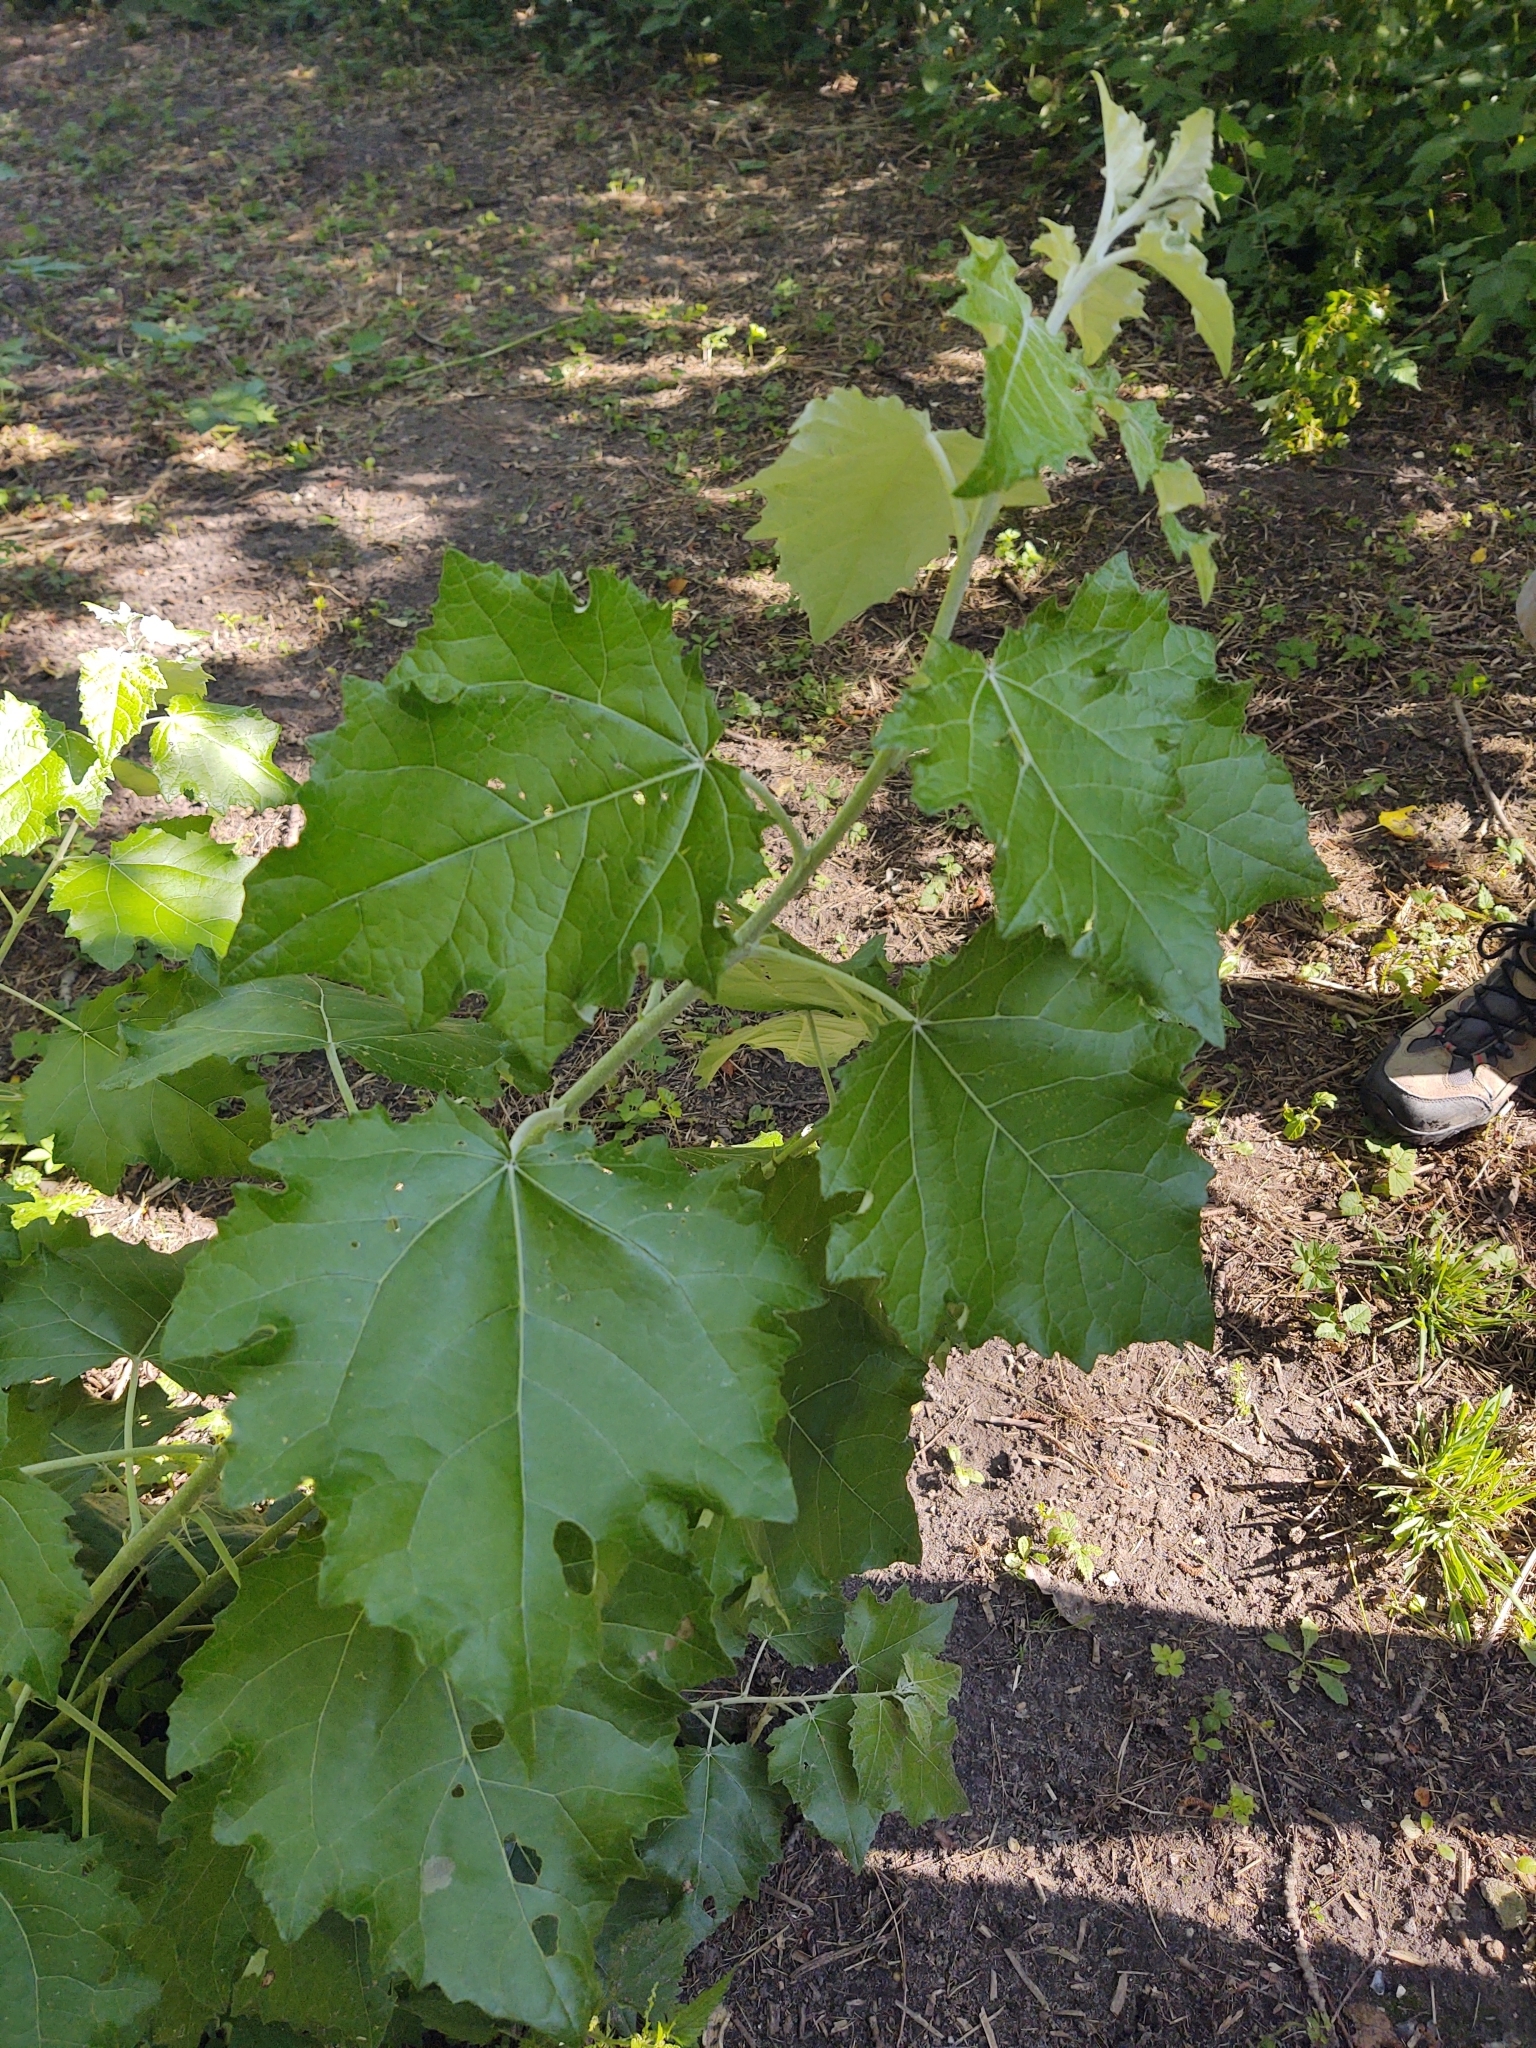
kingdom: Plantae
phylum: Tracheophyta
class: Magnoliopsida
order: Malpighiales
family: Salicaceae
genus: Populus
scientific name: Populus alba
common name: White poplar
